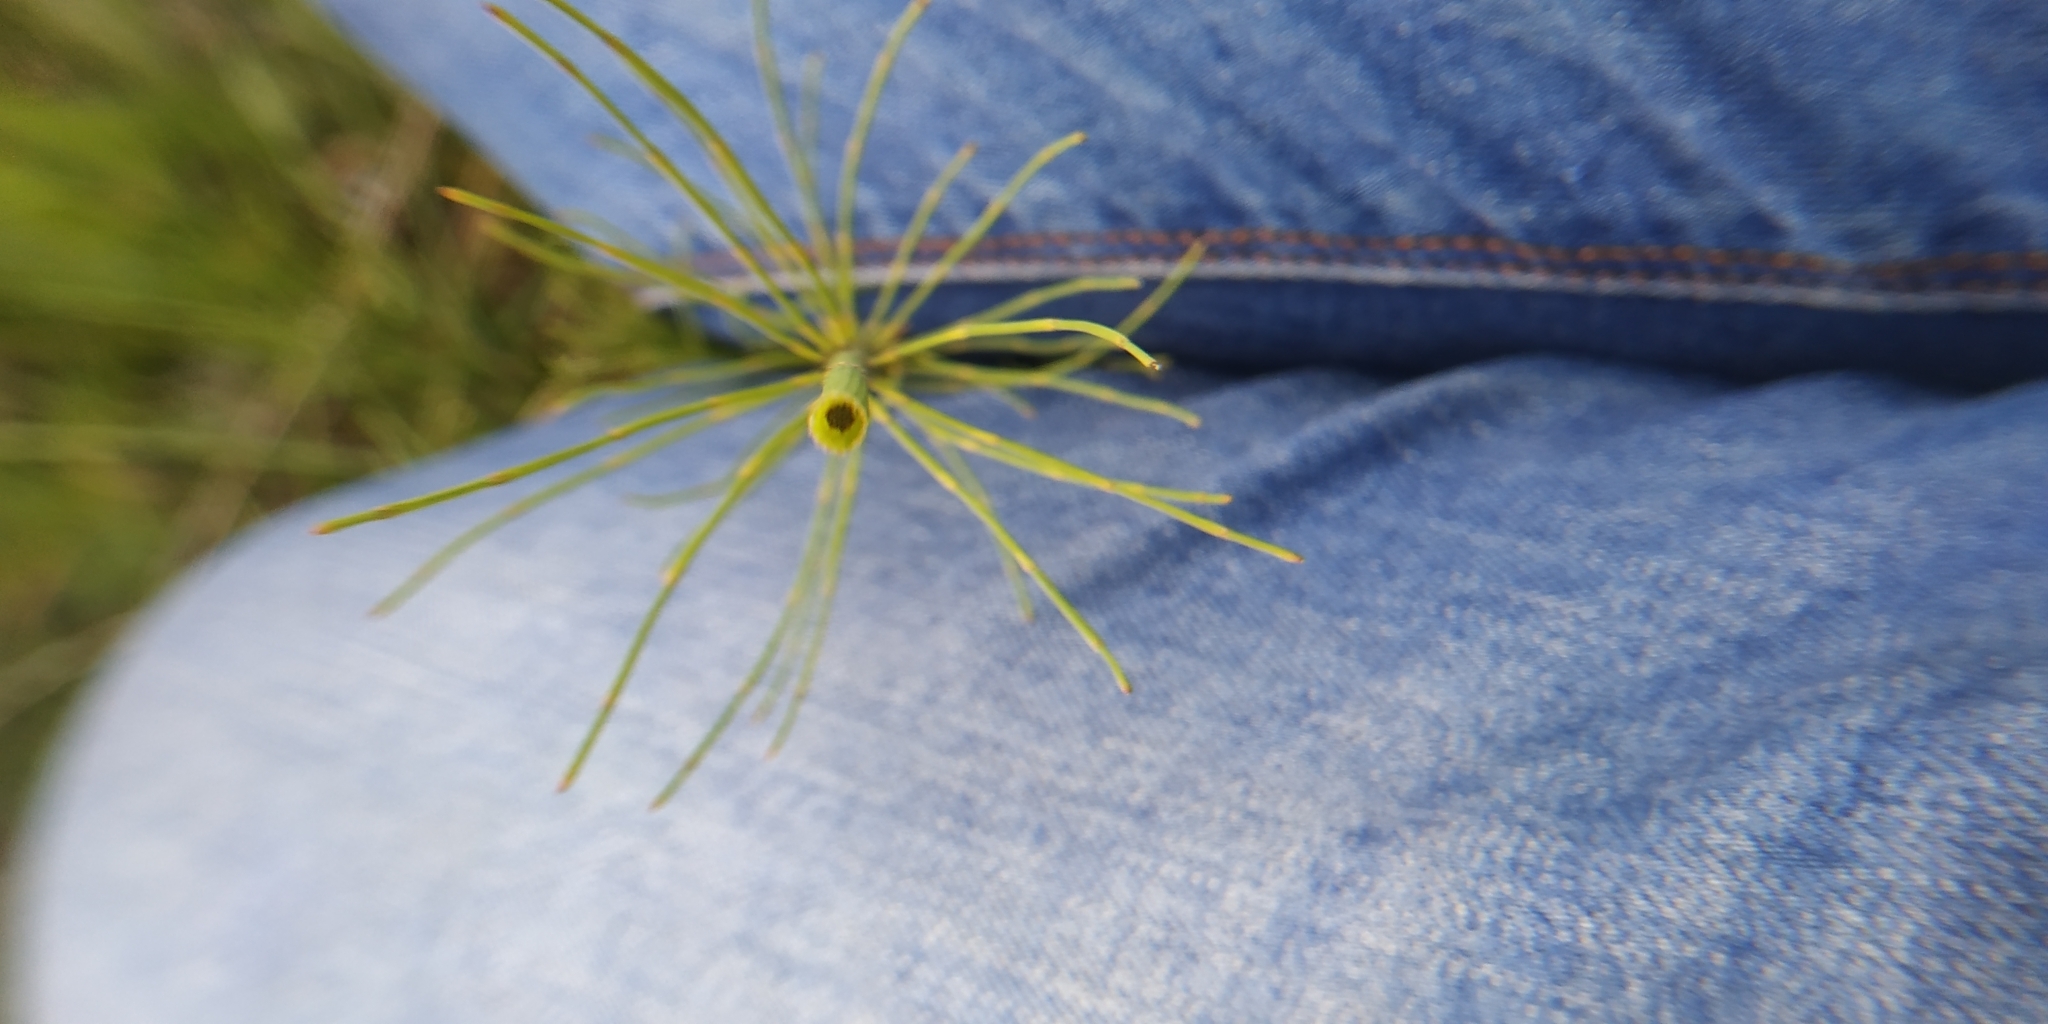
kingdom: Plantae
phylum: Tracheophyta
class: Polypodiopsida
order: Equisetales
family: Equisetaceae
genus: Equisetum
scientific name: Equisetum fluviatile
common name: Water horsetail
